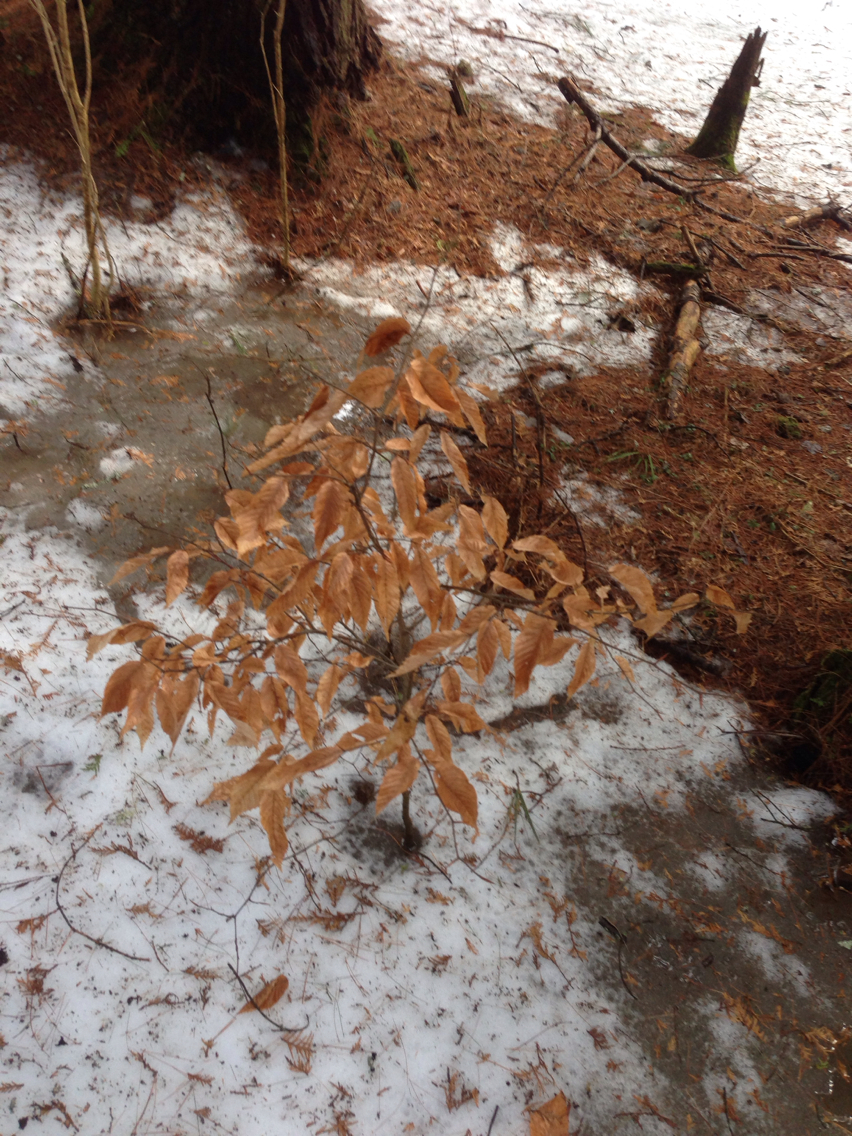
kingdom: Plantae
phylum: Tracheophyta
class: Magnoliopsida
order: Fagales
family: Fagaceae
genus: Fagus
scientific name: Fagus grandifolia
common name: American beech
